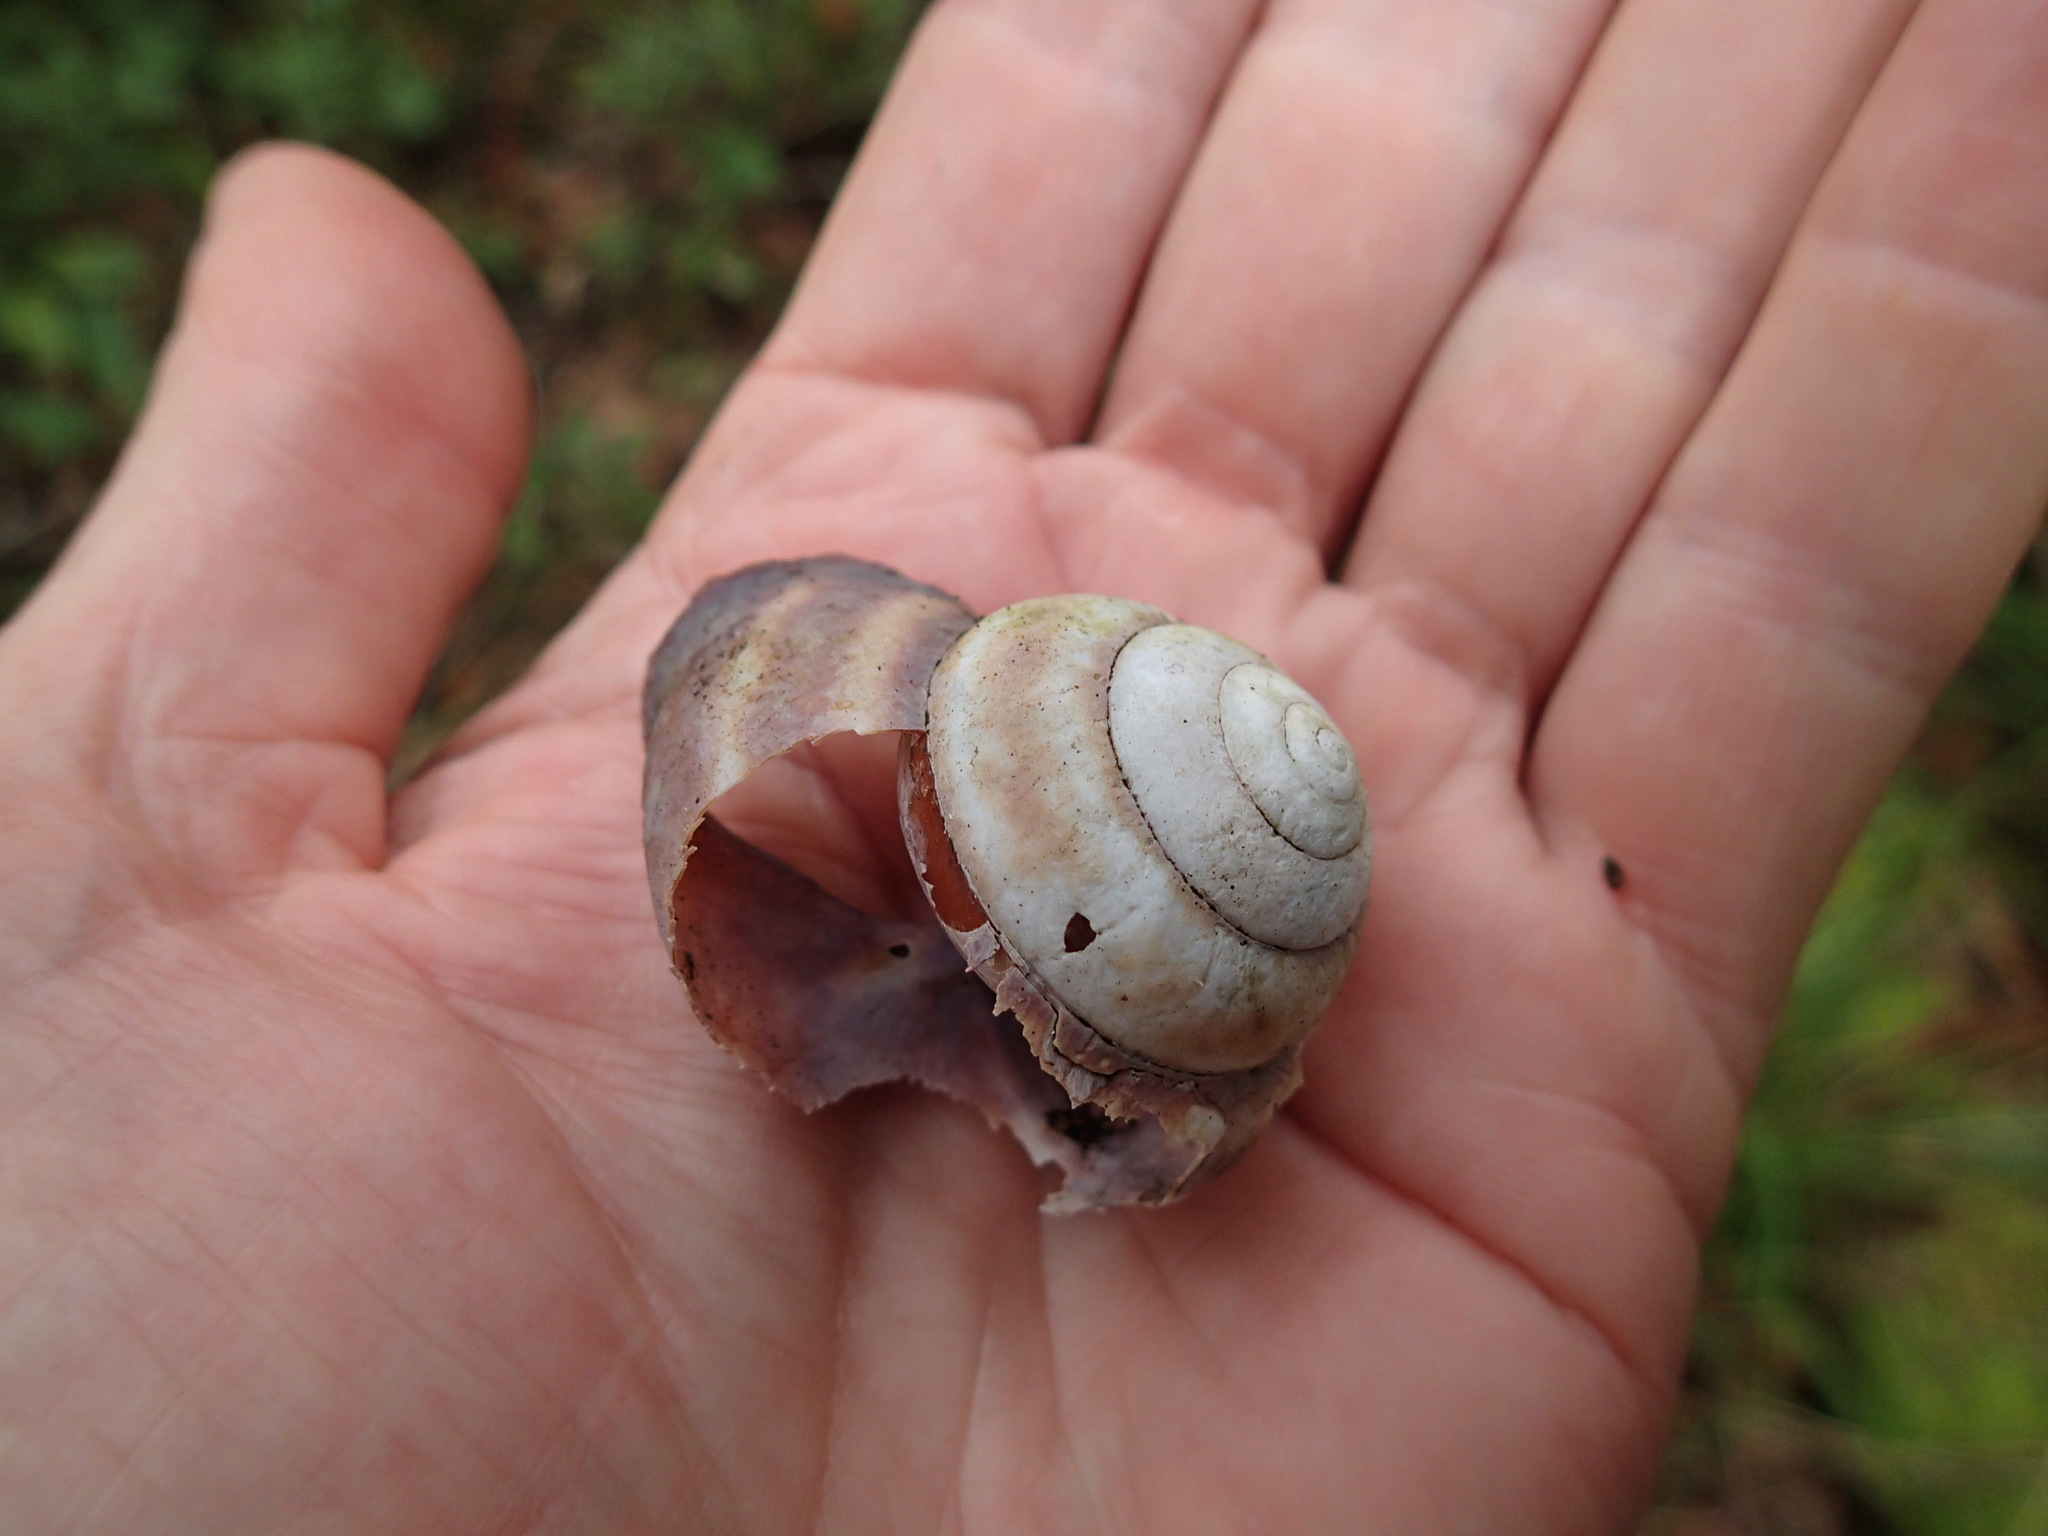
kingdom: Animalia
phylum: Mollusca
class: Gastropoda
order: Stylommatophora
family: Camaenidae
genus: Gnarosophia
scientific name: Gnarosophia bellendenkerensis
